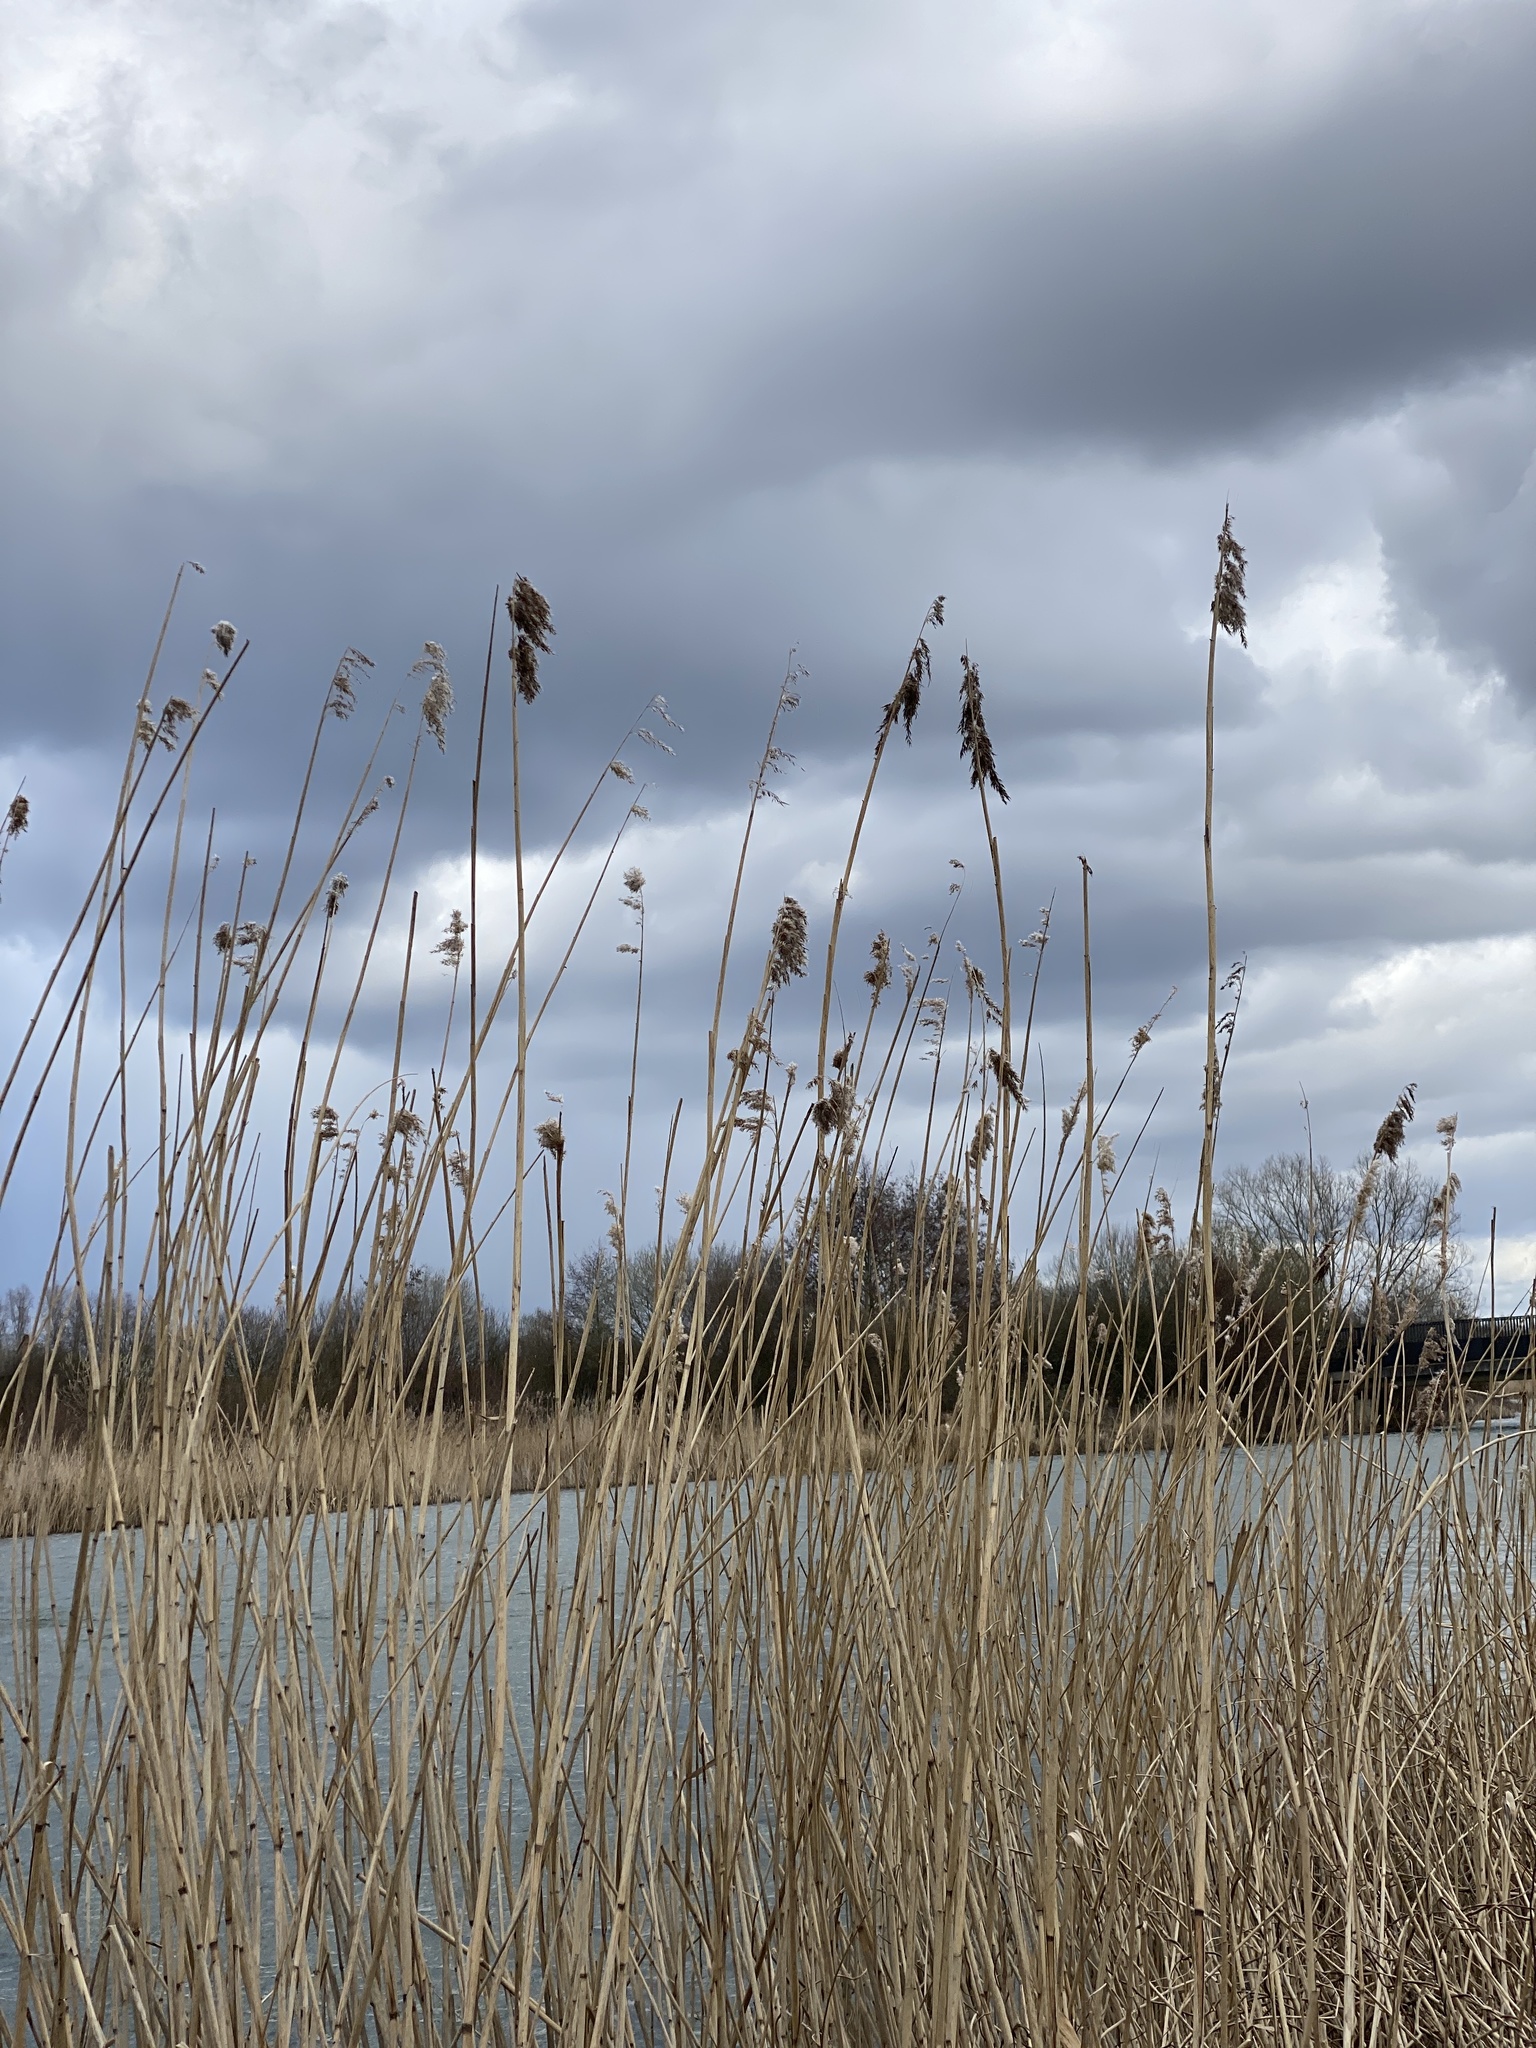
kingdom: Plantae
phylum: Tracheophyta
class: Liliopsida
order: Poales
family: Poaceae
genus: Phragmites
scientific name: Phragmites australis
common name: Common reed
